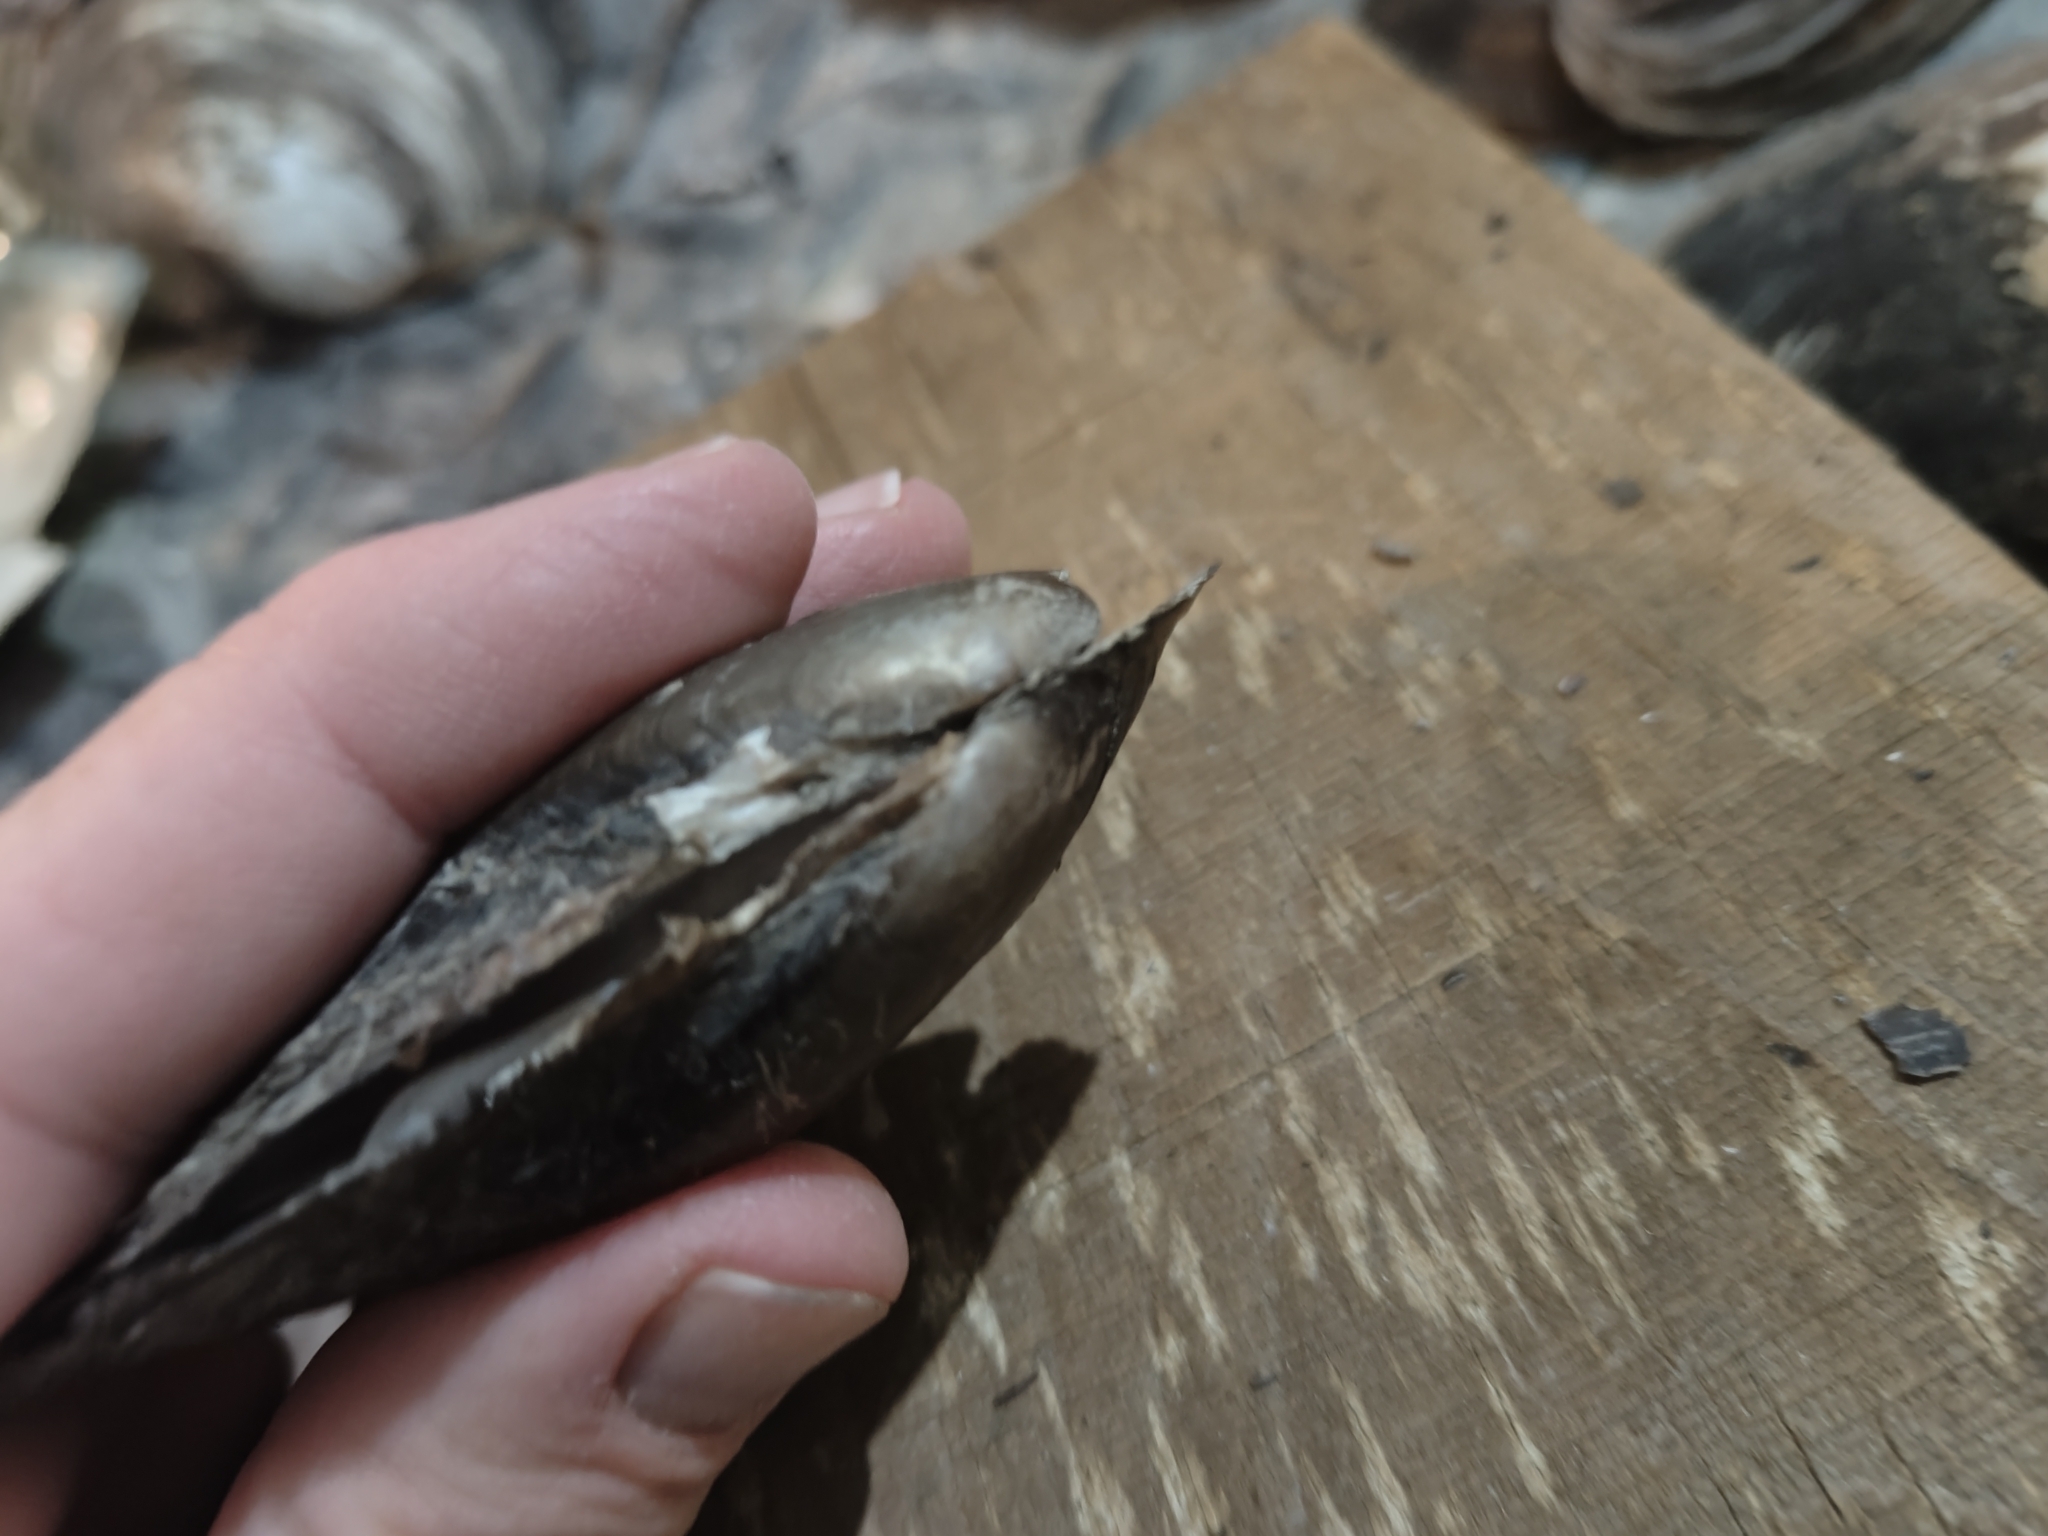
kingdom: Animalia
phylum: Mollusca
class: Bivalvia
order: Unionida
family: Unionidae
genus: Potamilus
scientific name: Potamilus fragilis
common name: Fragile papershell
